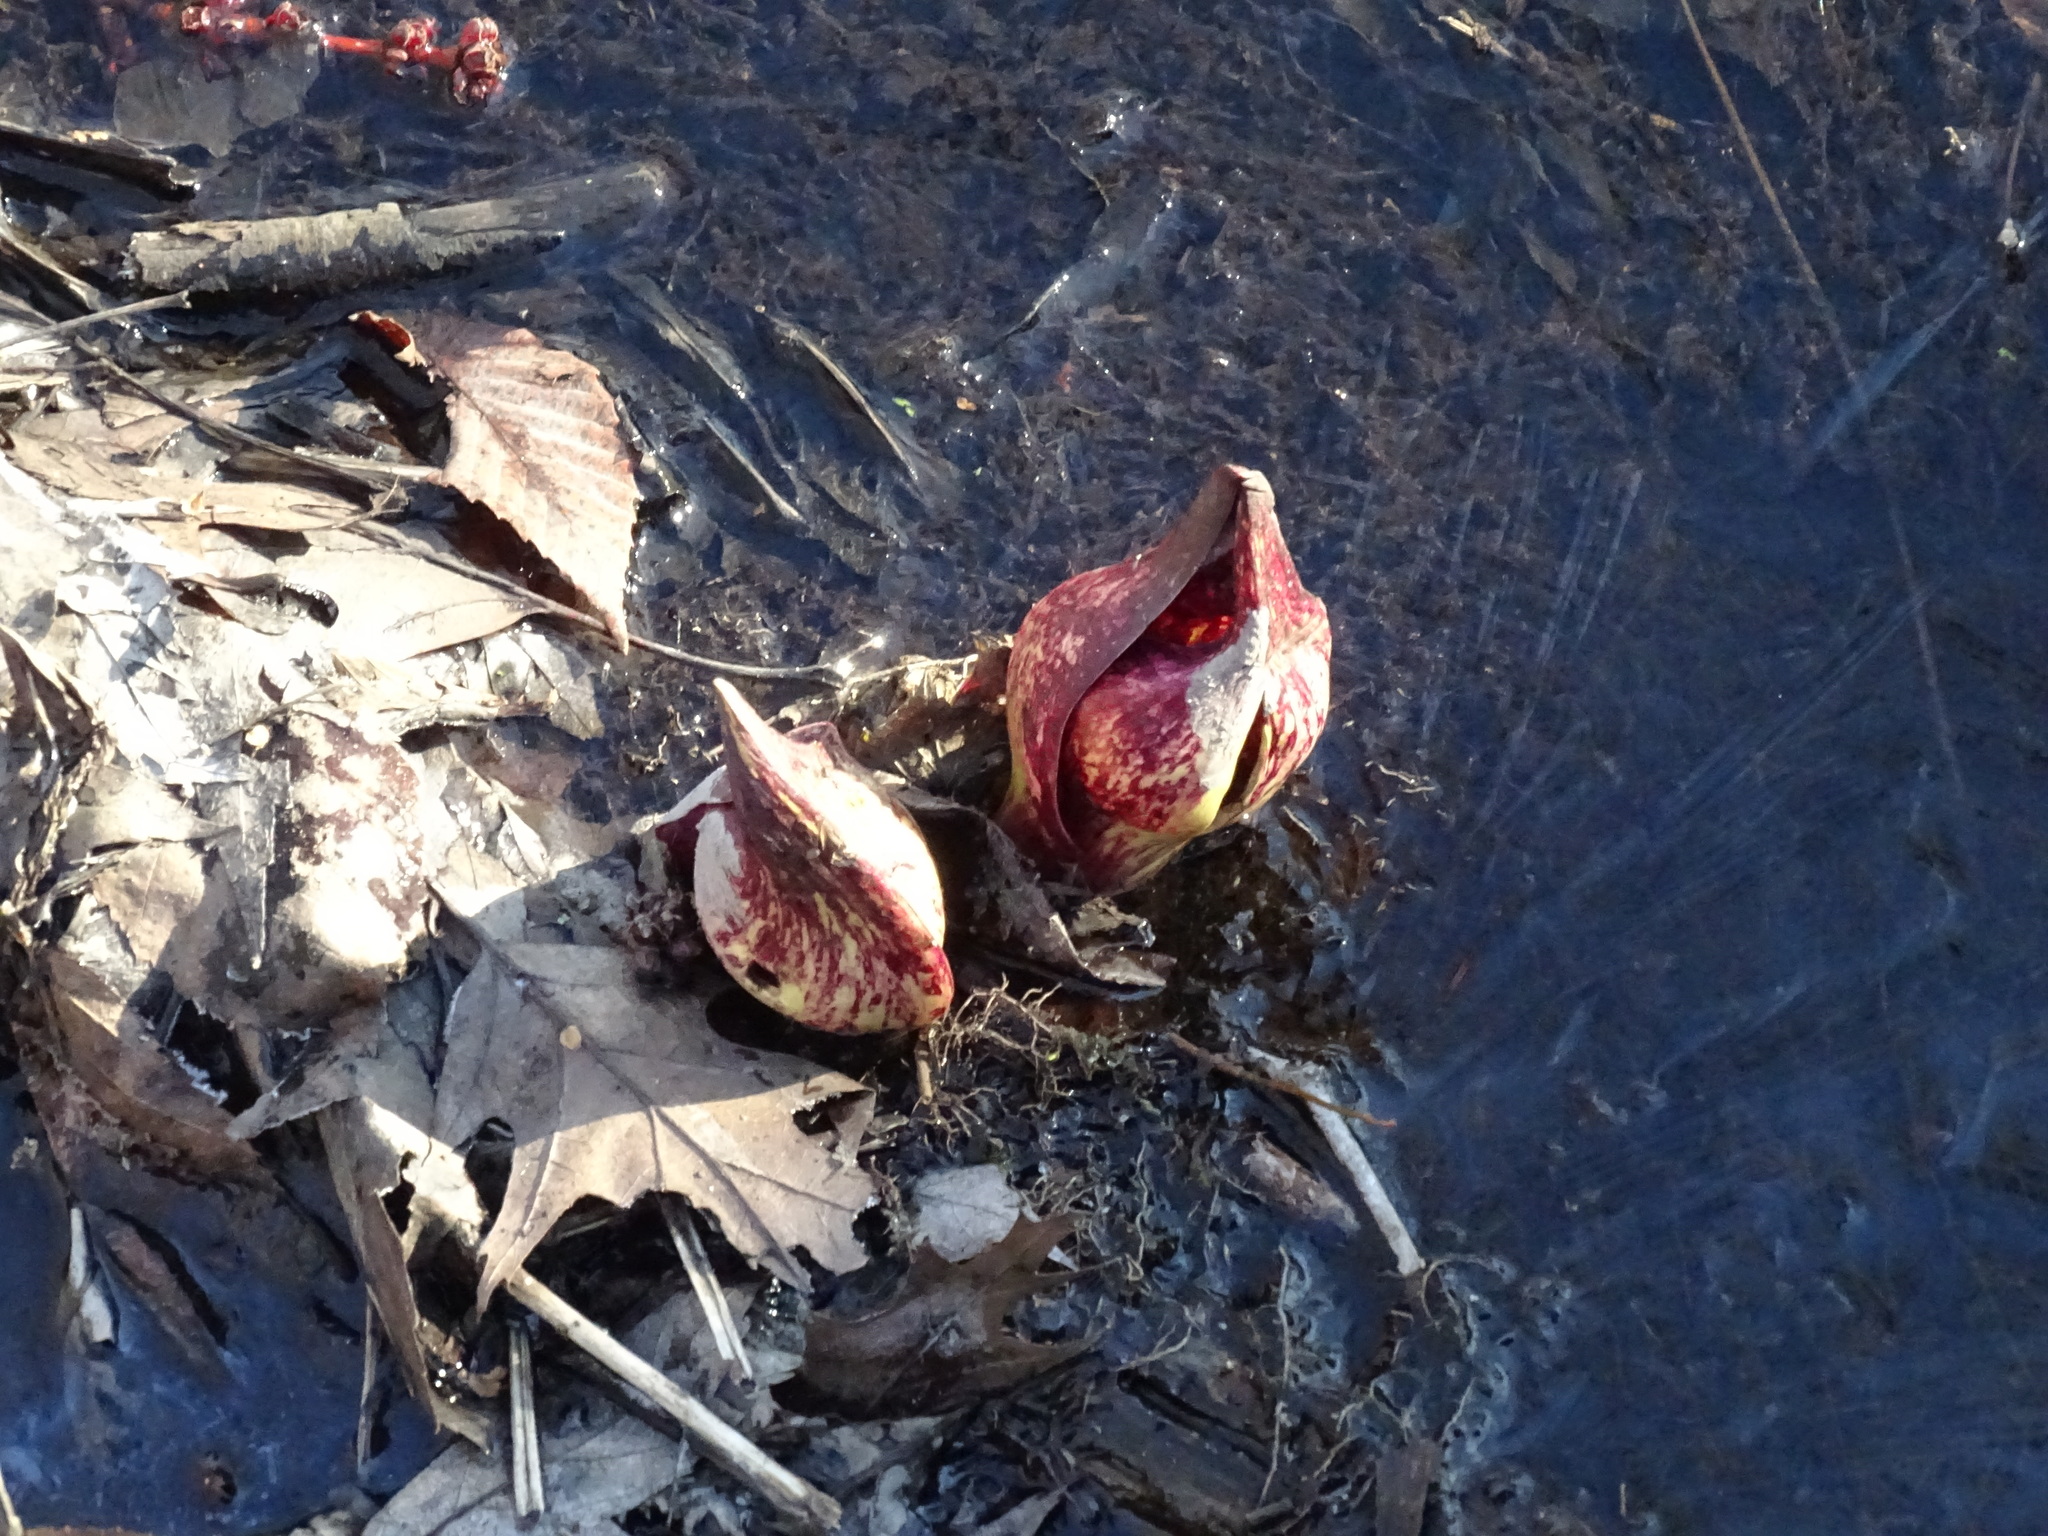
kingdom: Plantae
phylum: Tracheophyta
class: Liliopsida
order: Alismatales
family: Araceae
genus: Symplocarpus
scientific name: Symplocarpus foetidus
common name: Eastern skunk cabbage
